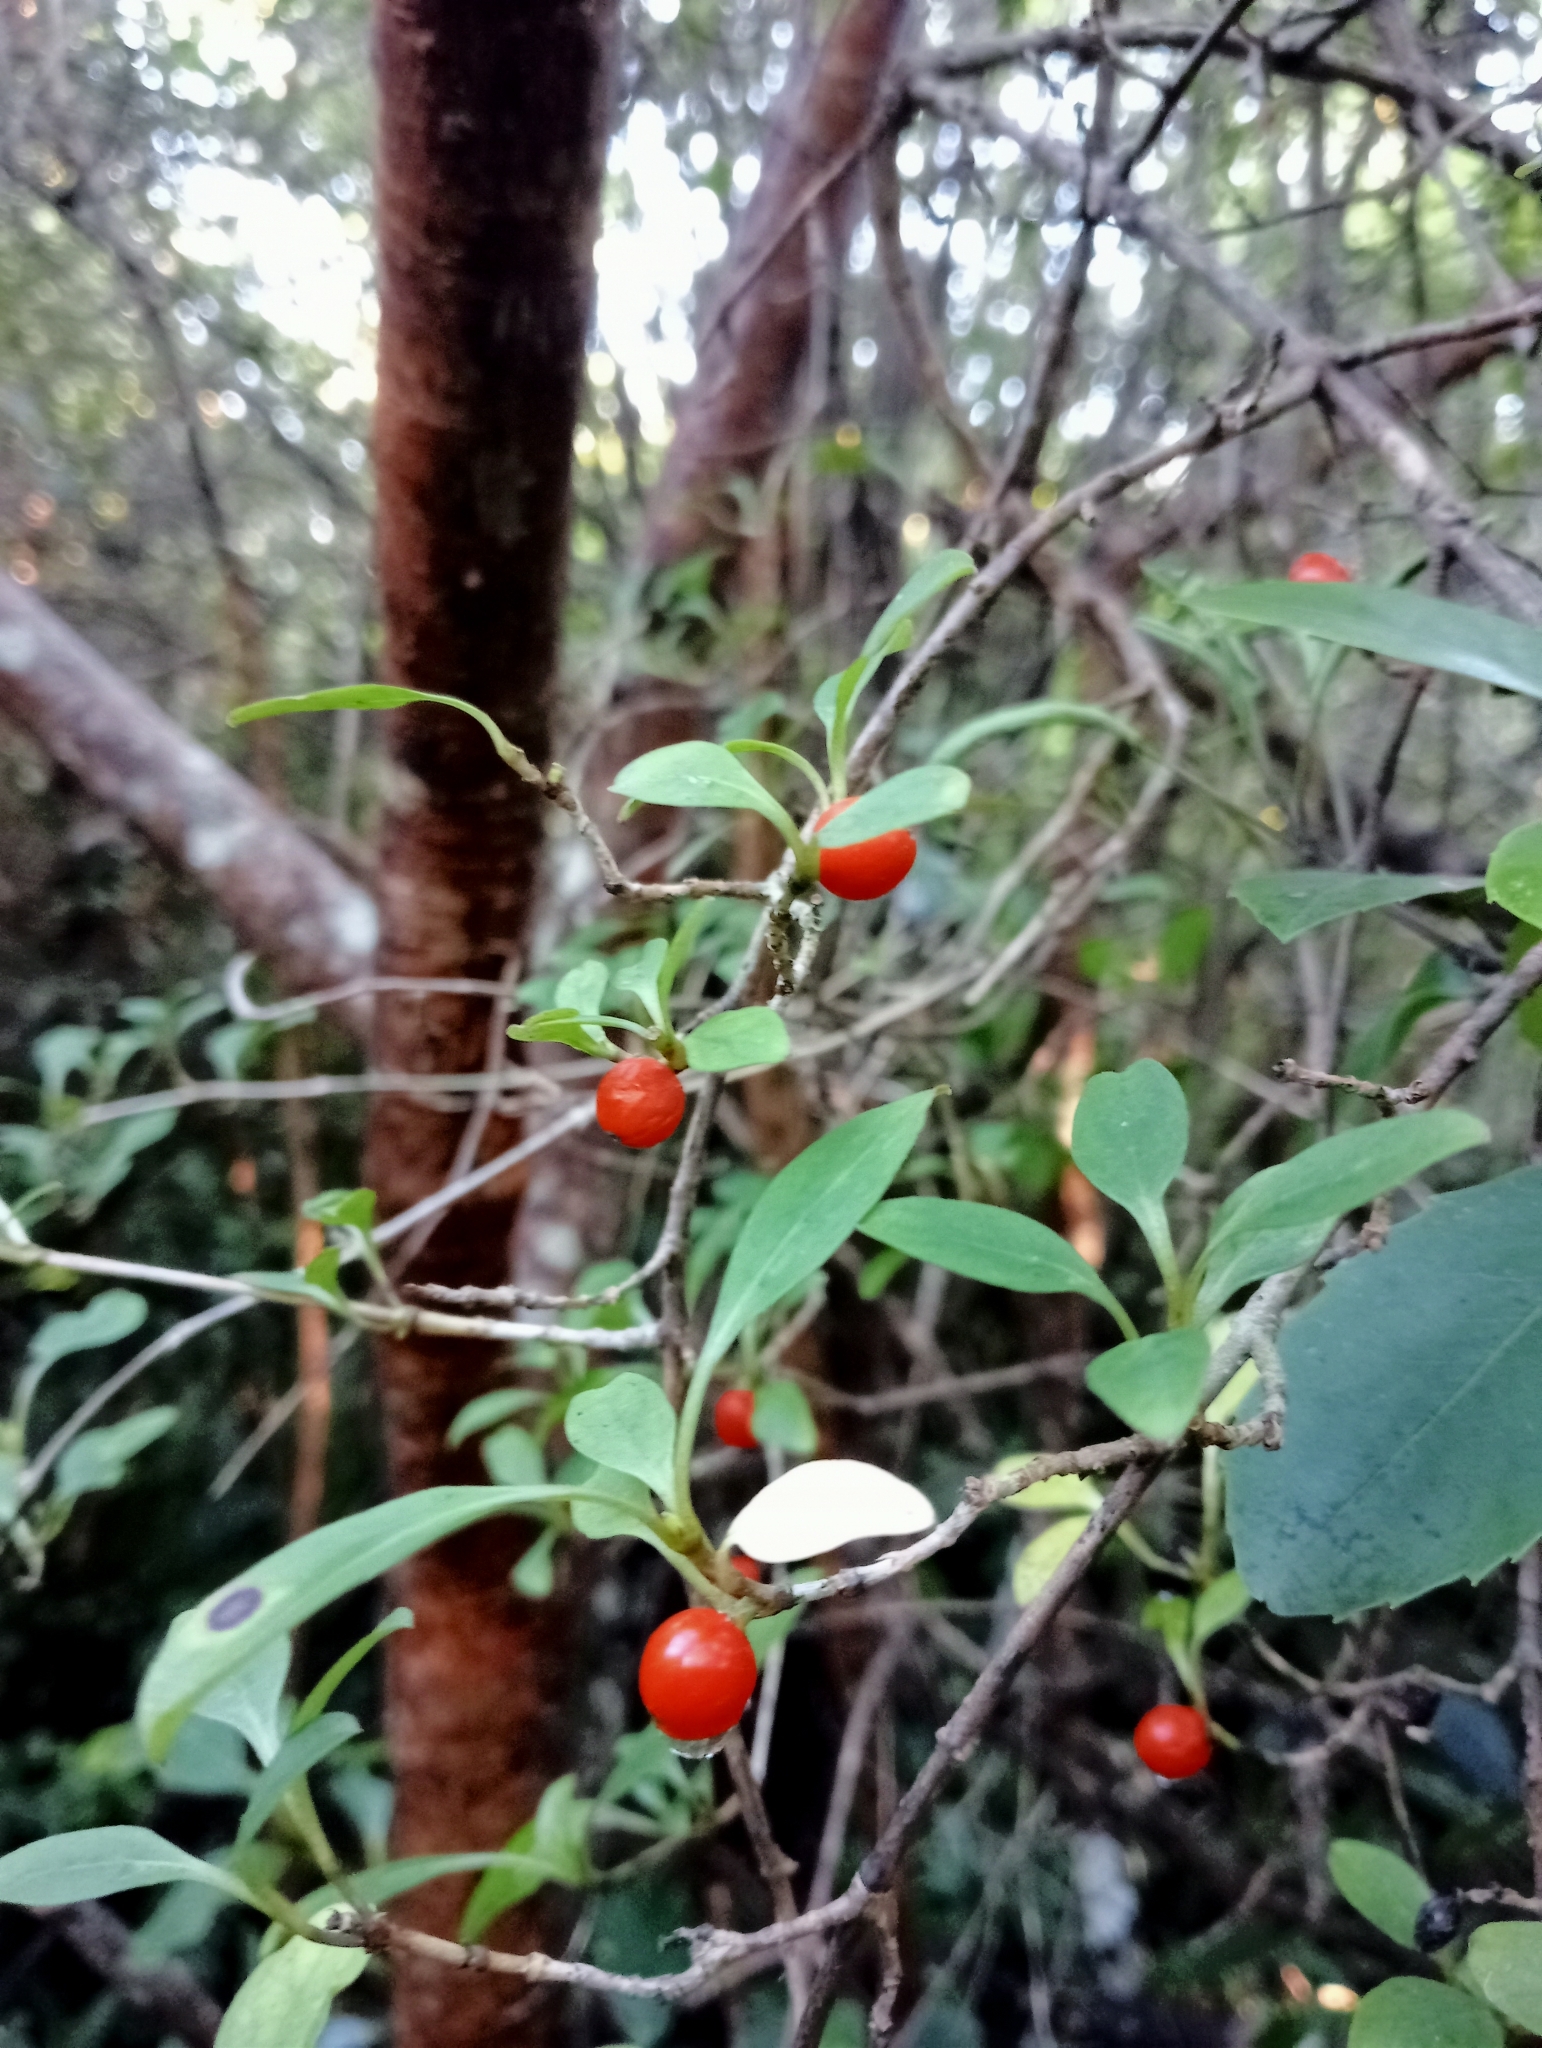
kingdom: Plantae
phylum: Tracheophyta
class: Magnoliopsida
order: Gentianales
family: Rubiaceae
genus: Coprosma
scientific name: Coprosma foetidissima
